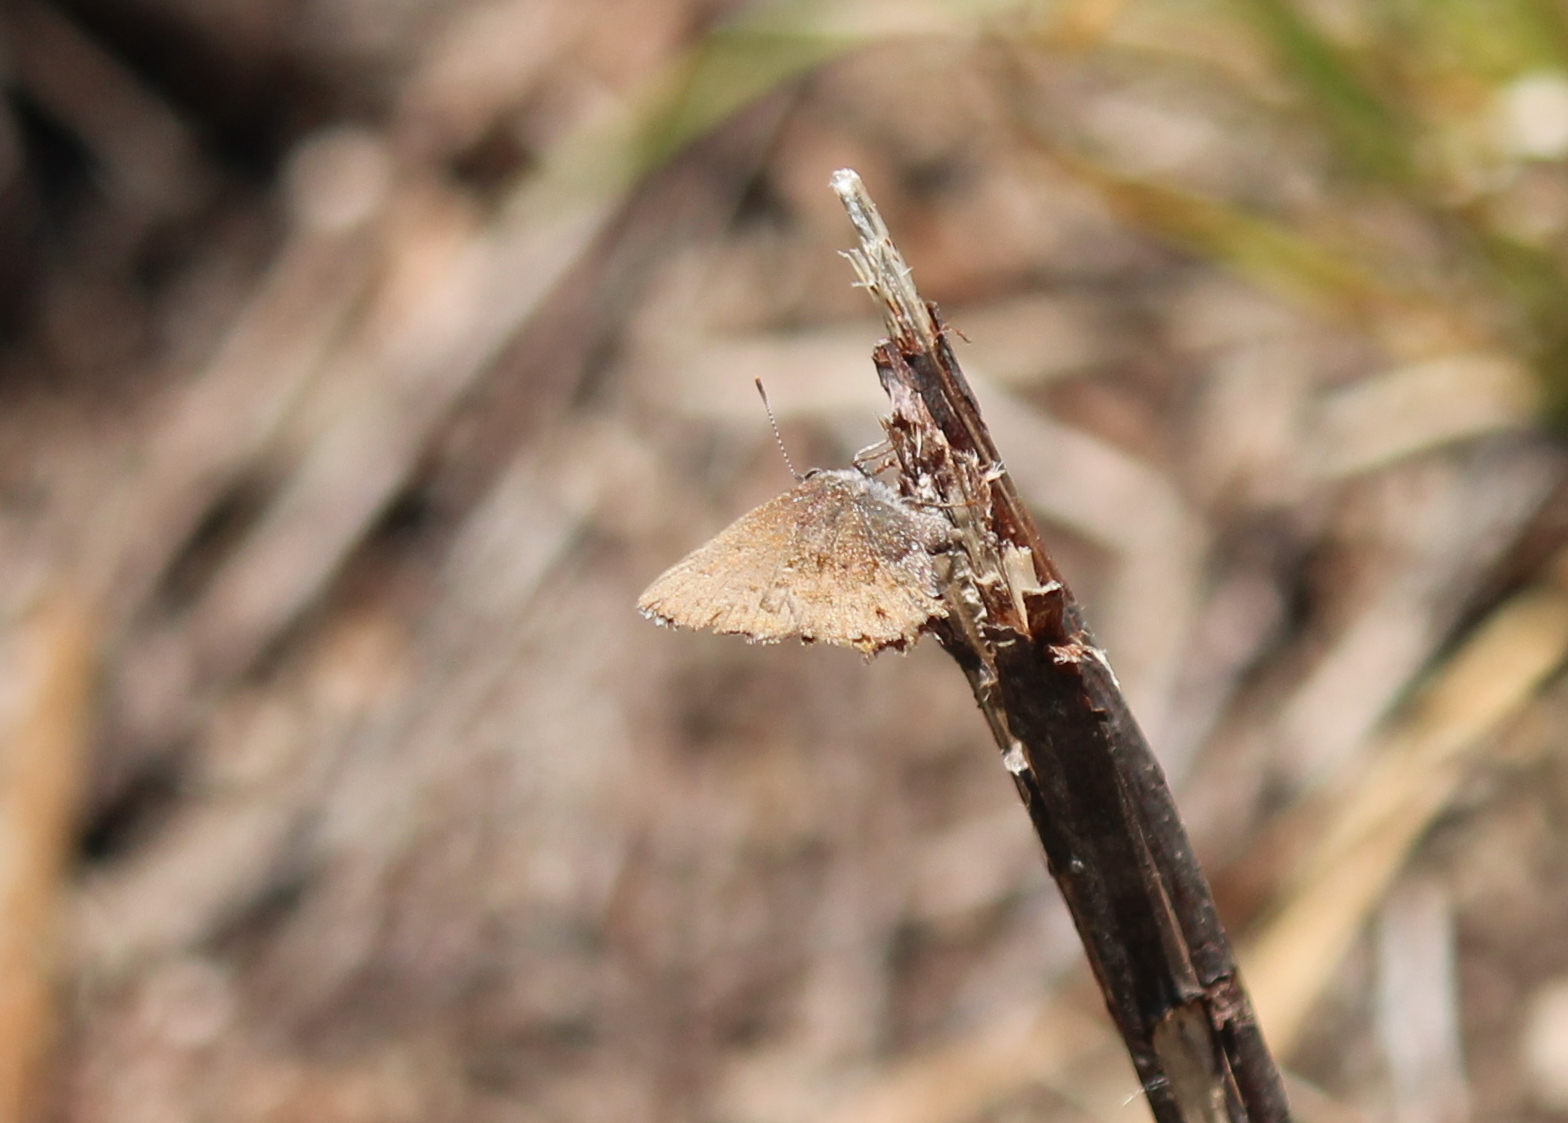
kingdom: Animalia
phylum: Arthropoda
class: Insecta
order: Lepidoptera
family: Lycaenidae
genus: Thecla
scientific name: Thecla irus
